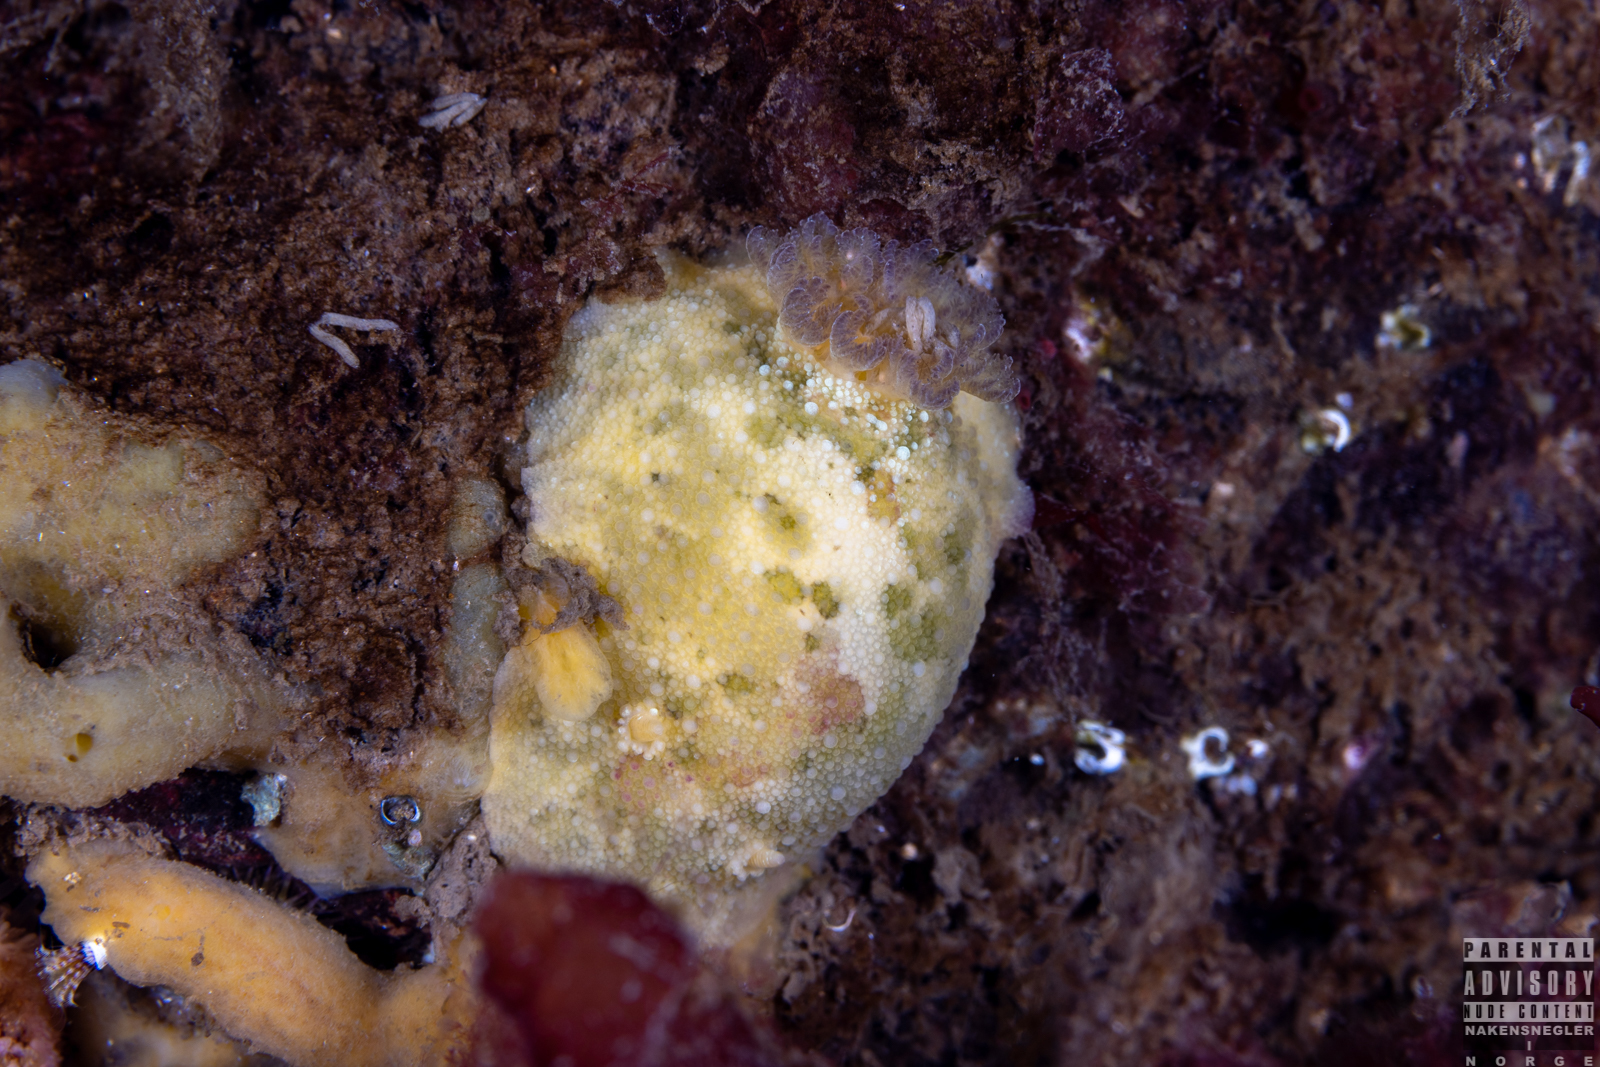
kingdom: Animalia
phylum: Mollusca
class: Gastropoda
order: Nudibranchia
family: Dorididae
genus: Doris
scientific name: Doris pseudoargus
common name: Sea lemon
